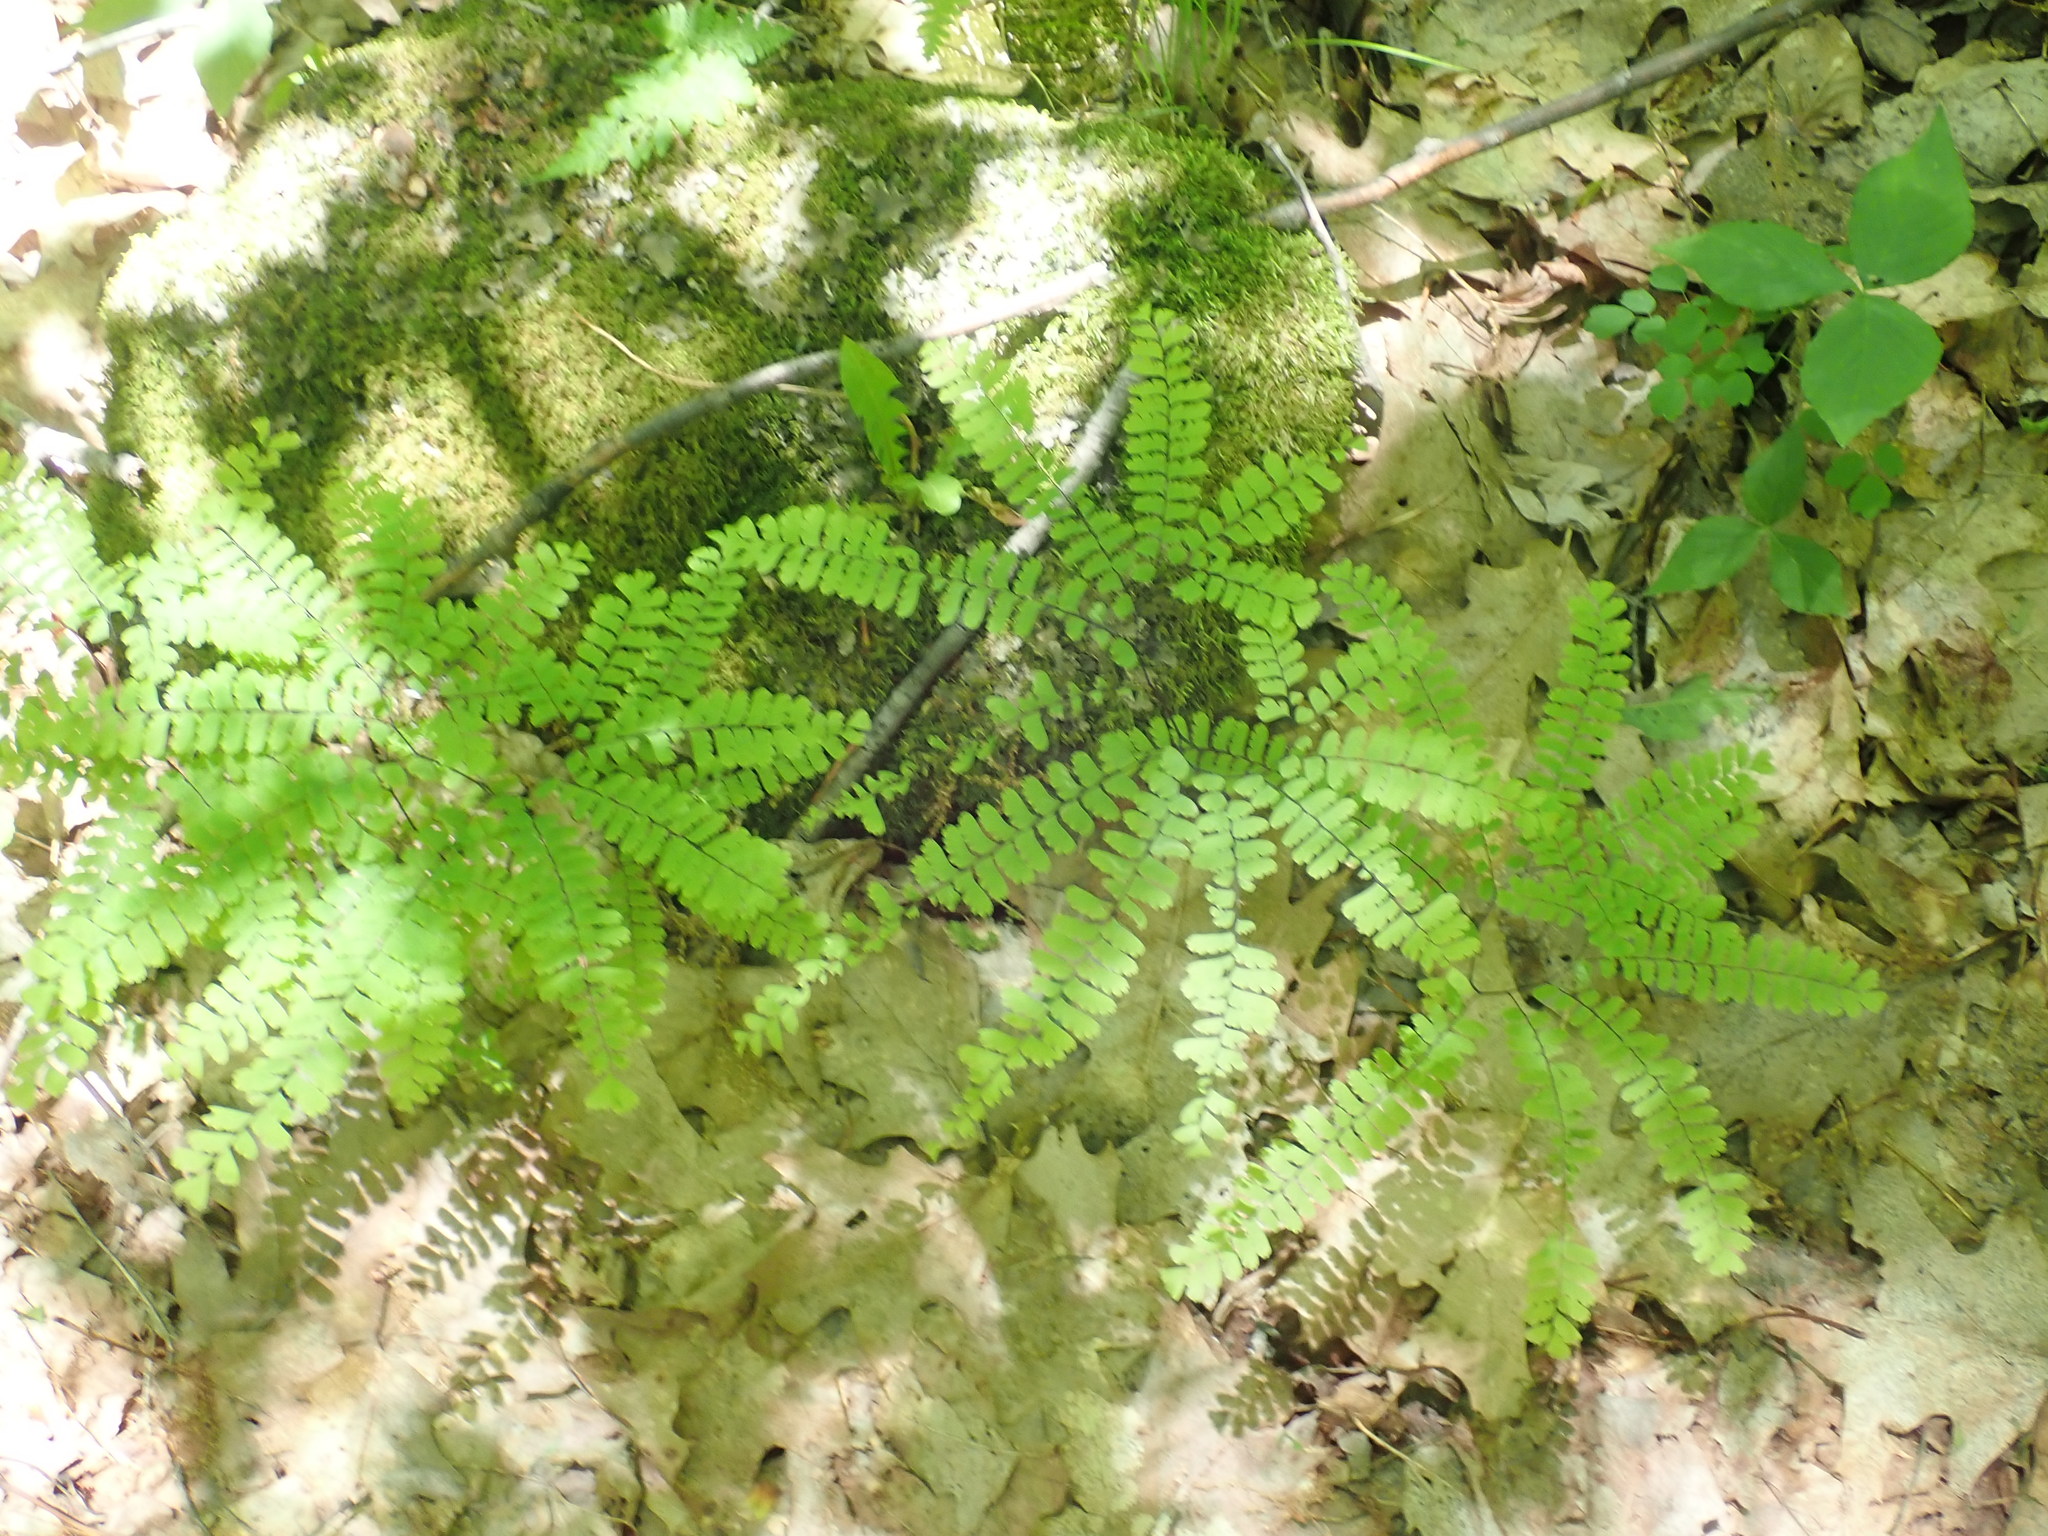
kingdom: Plantae
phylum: Tracheophyta
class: Polypodiopsida
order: Polypodiales
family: Pteridaceae
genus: Adiantum
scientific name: Adiantum pedatum
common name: Five-finger fern
